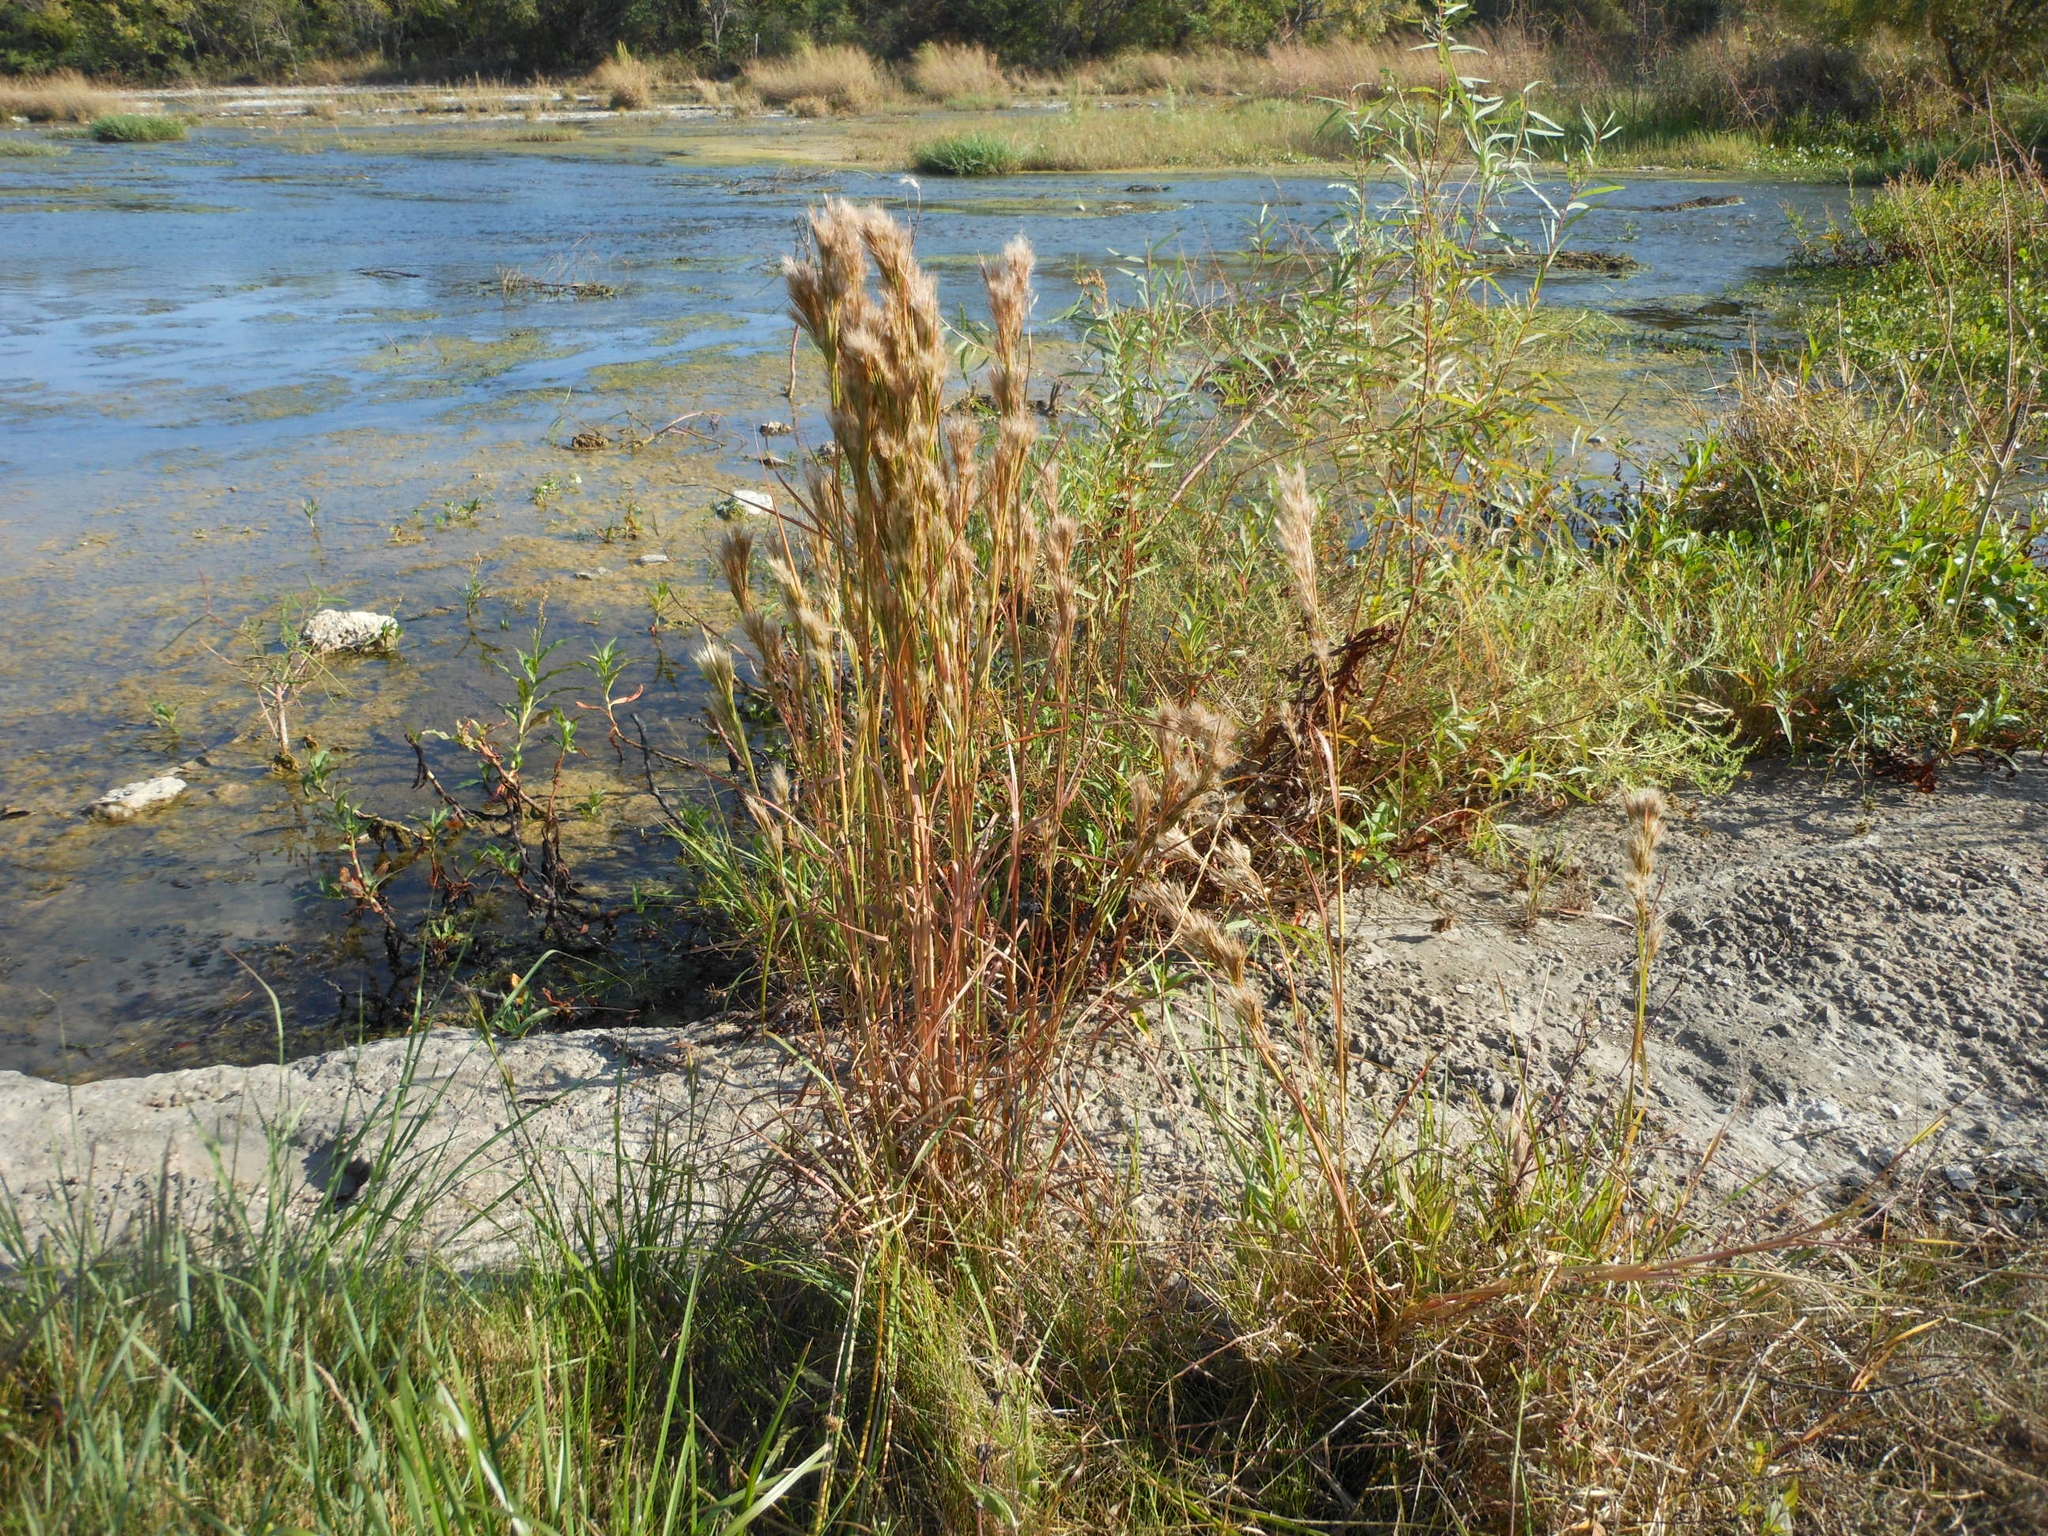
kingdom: Plantae
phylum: Tracheophyta
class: Liliopsida
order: Poales
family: Poaceae
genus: Andropogon
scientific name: Andropogon tenuispatheus
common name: Bushy bluestem
